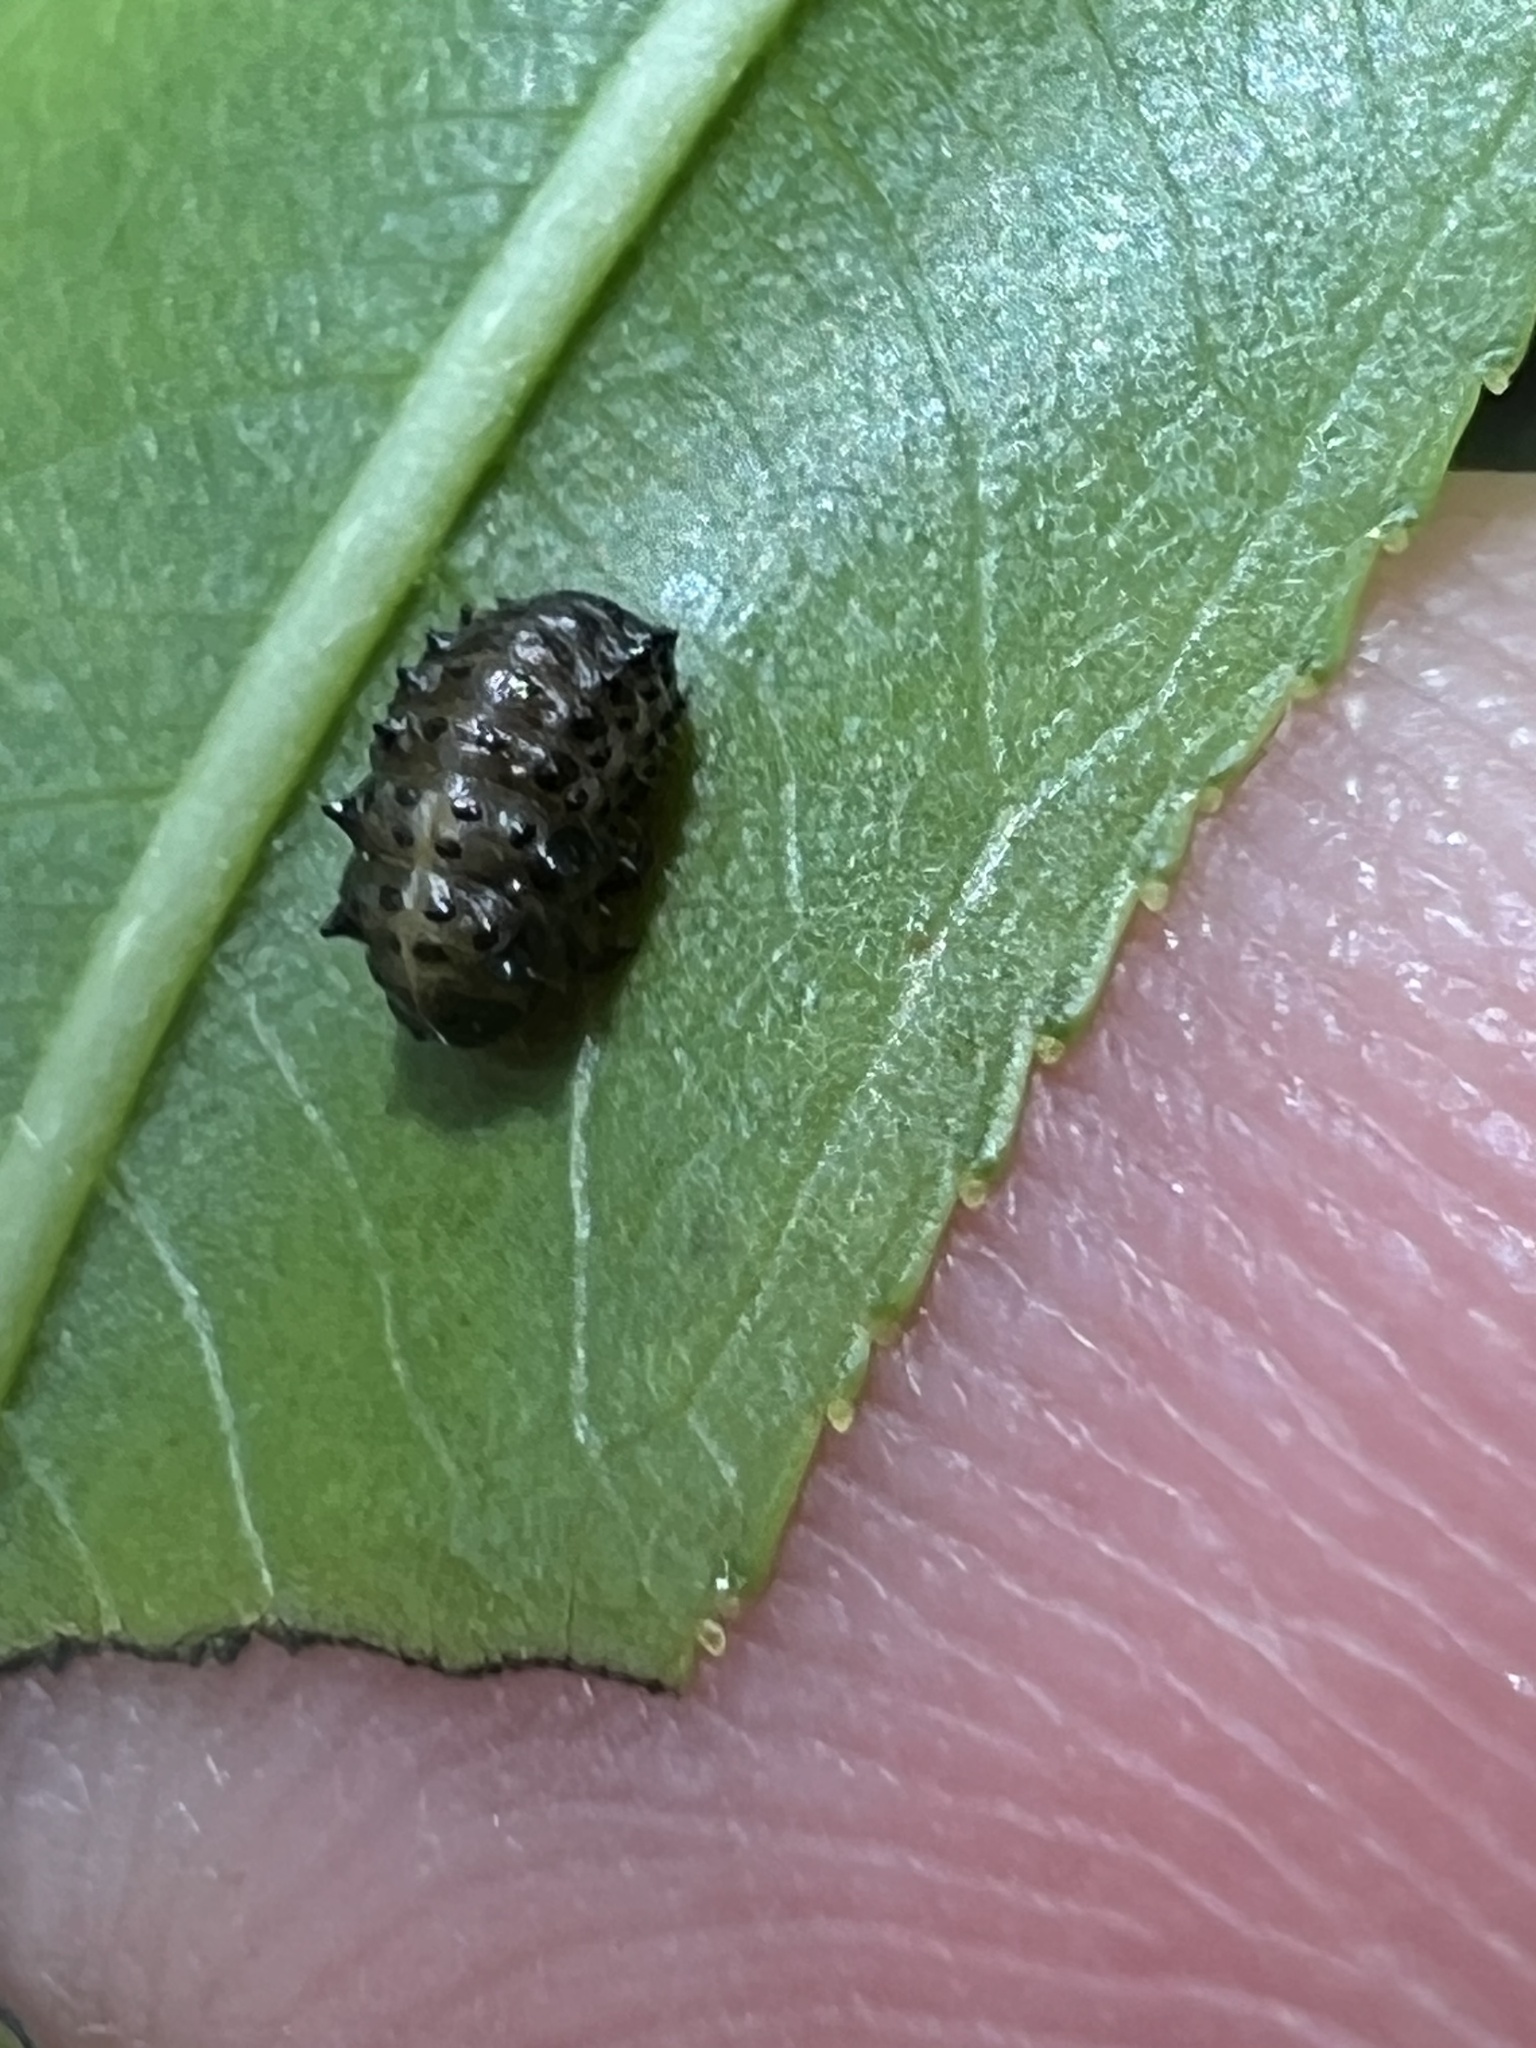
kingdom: Animalia
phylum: Arthropoda
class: Insecta
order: Coleoptera
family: Chrysomelidae
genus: Plagiodera
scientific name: Plagiodera versicolora
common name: Imported willow leaf beetle
